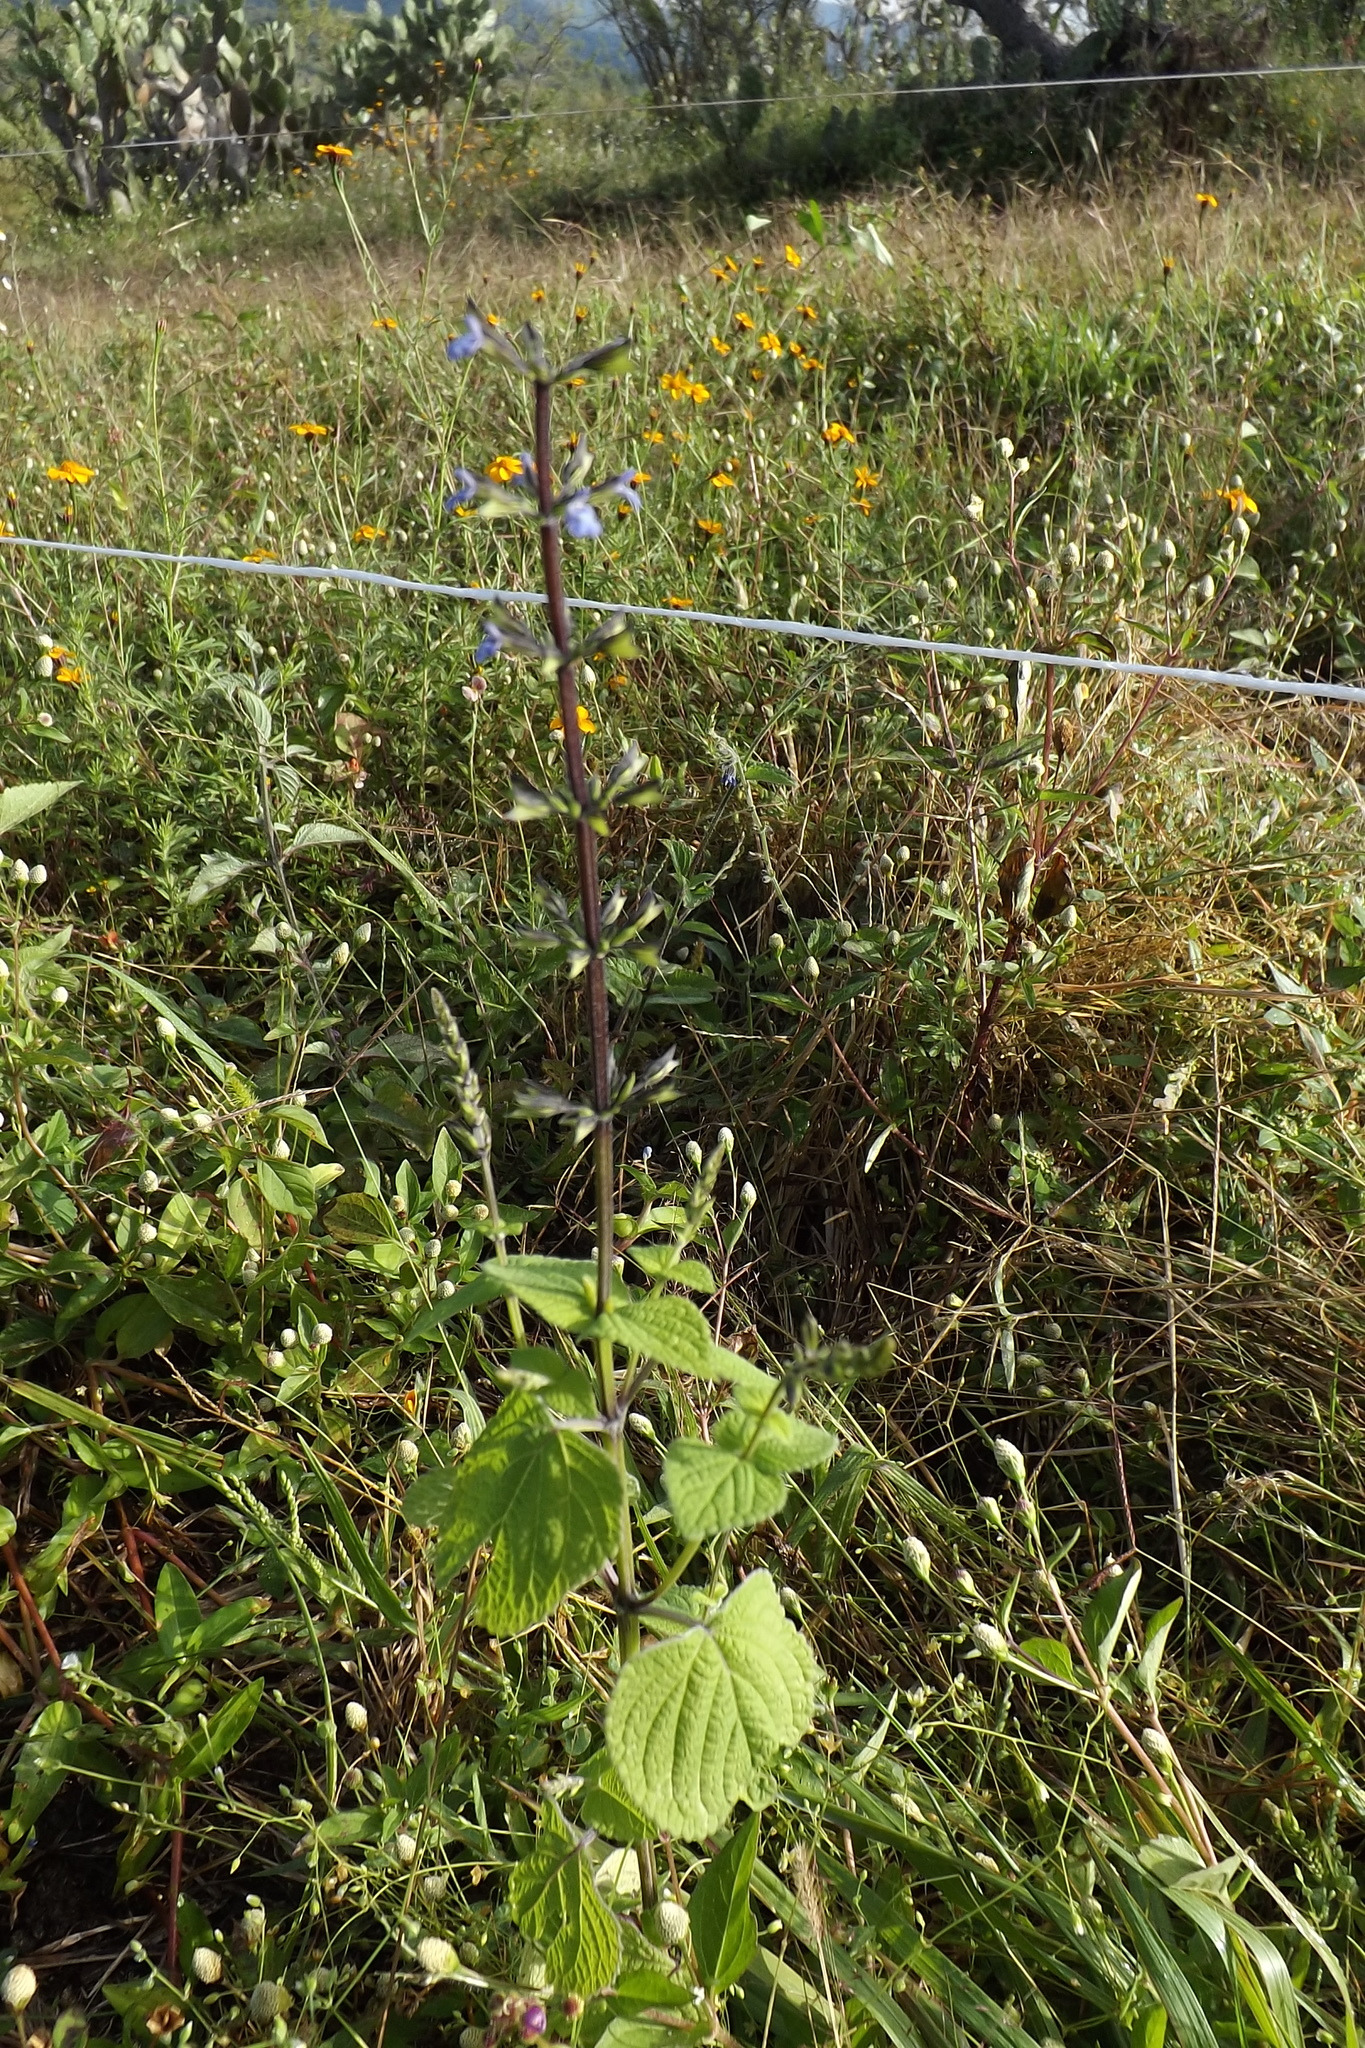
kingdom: Plantae
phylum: Tracheophyta
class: Magnoliopsida
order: Lamiales
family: Lamiaceae
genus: Salvia
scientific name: Salvia tiliifolia
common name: Lindenleaf sage
